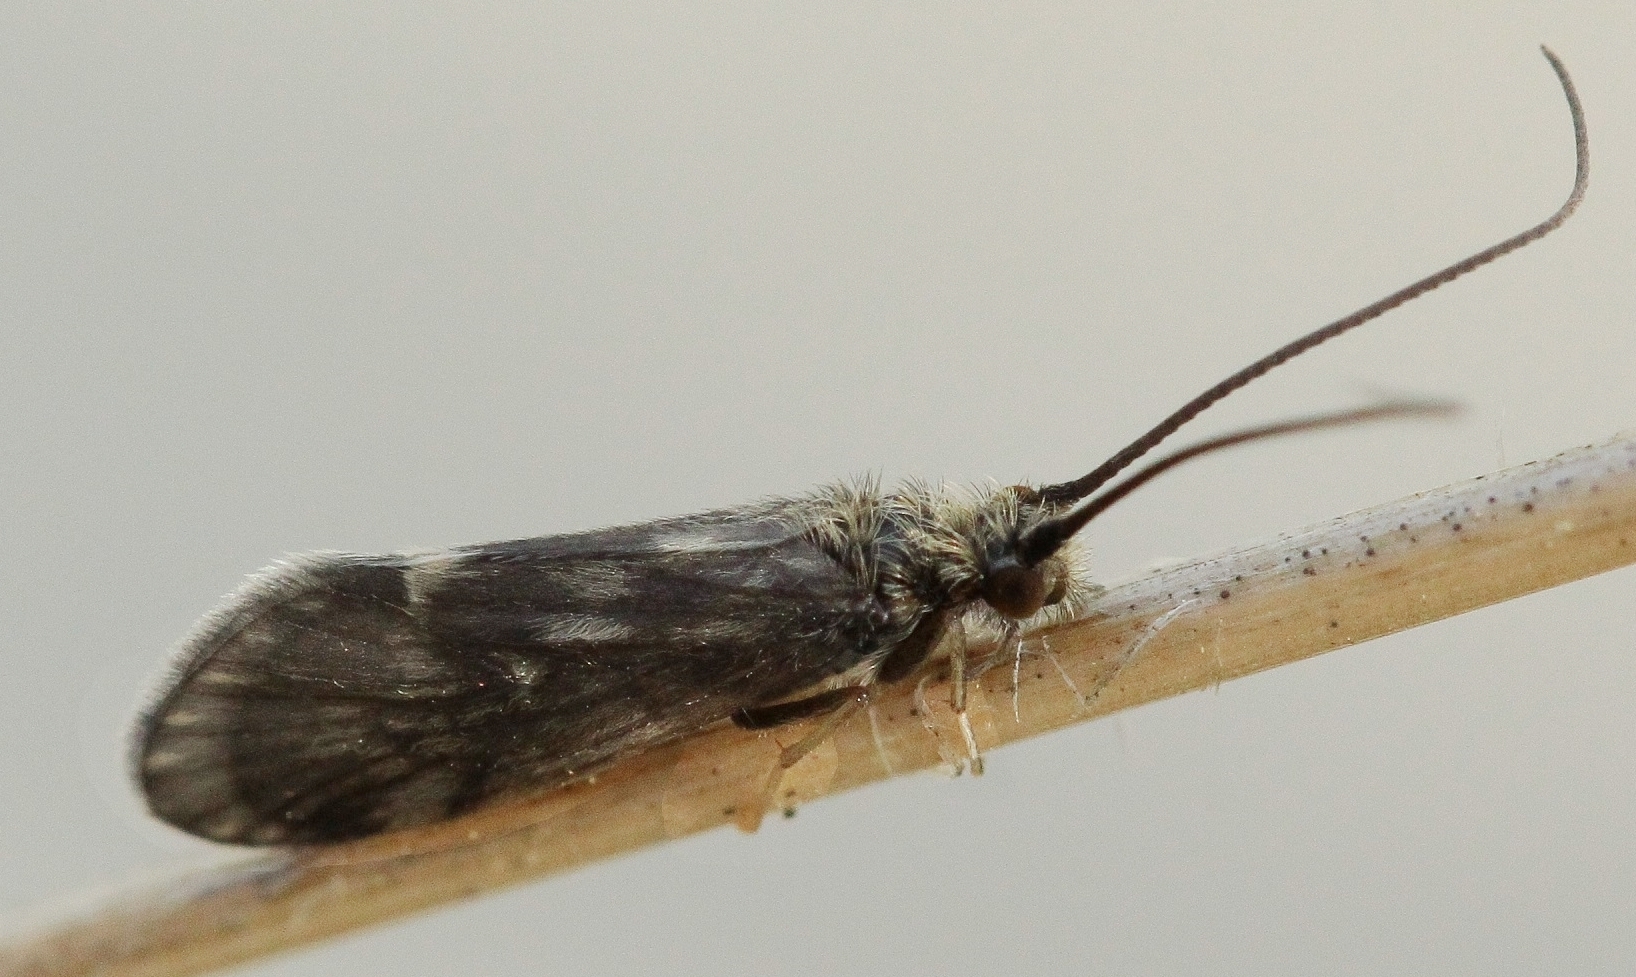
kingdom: Animalia
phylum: Arthropoda
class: Insecta
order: Trichoptera
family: Brachycentridae
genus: Brachycentrus
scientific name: Brachycentrus subnubilis
